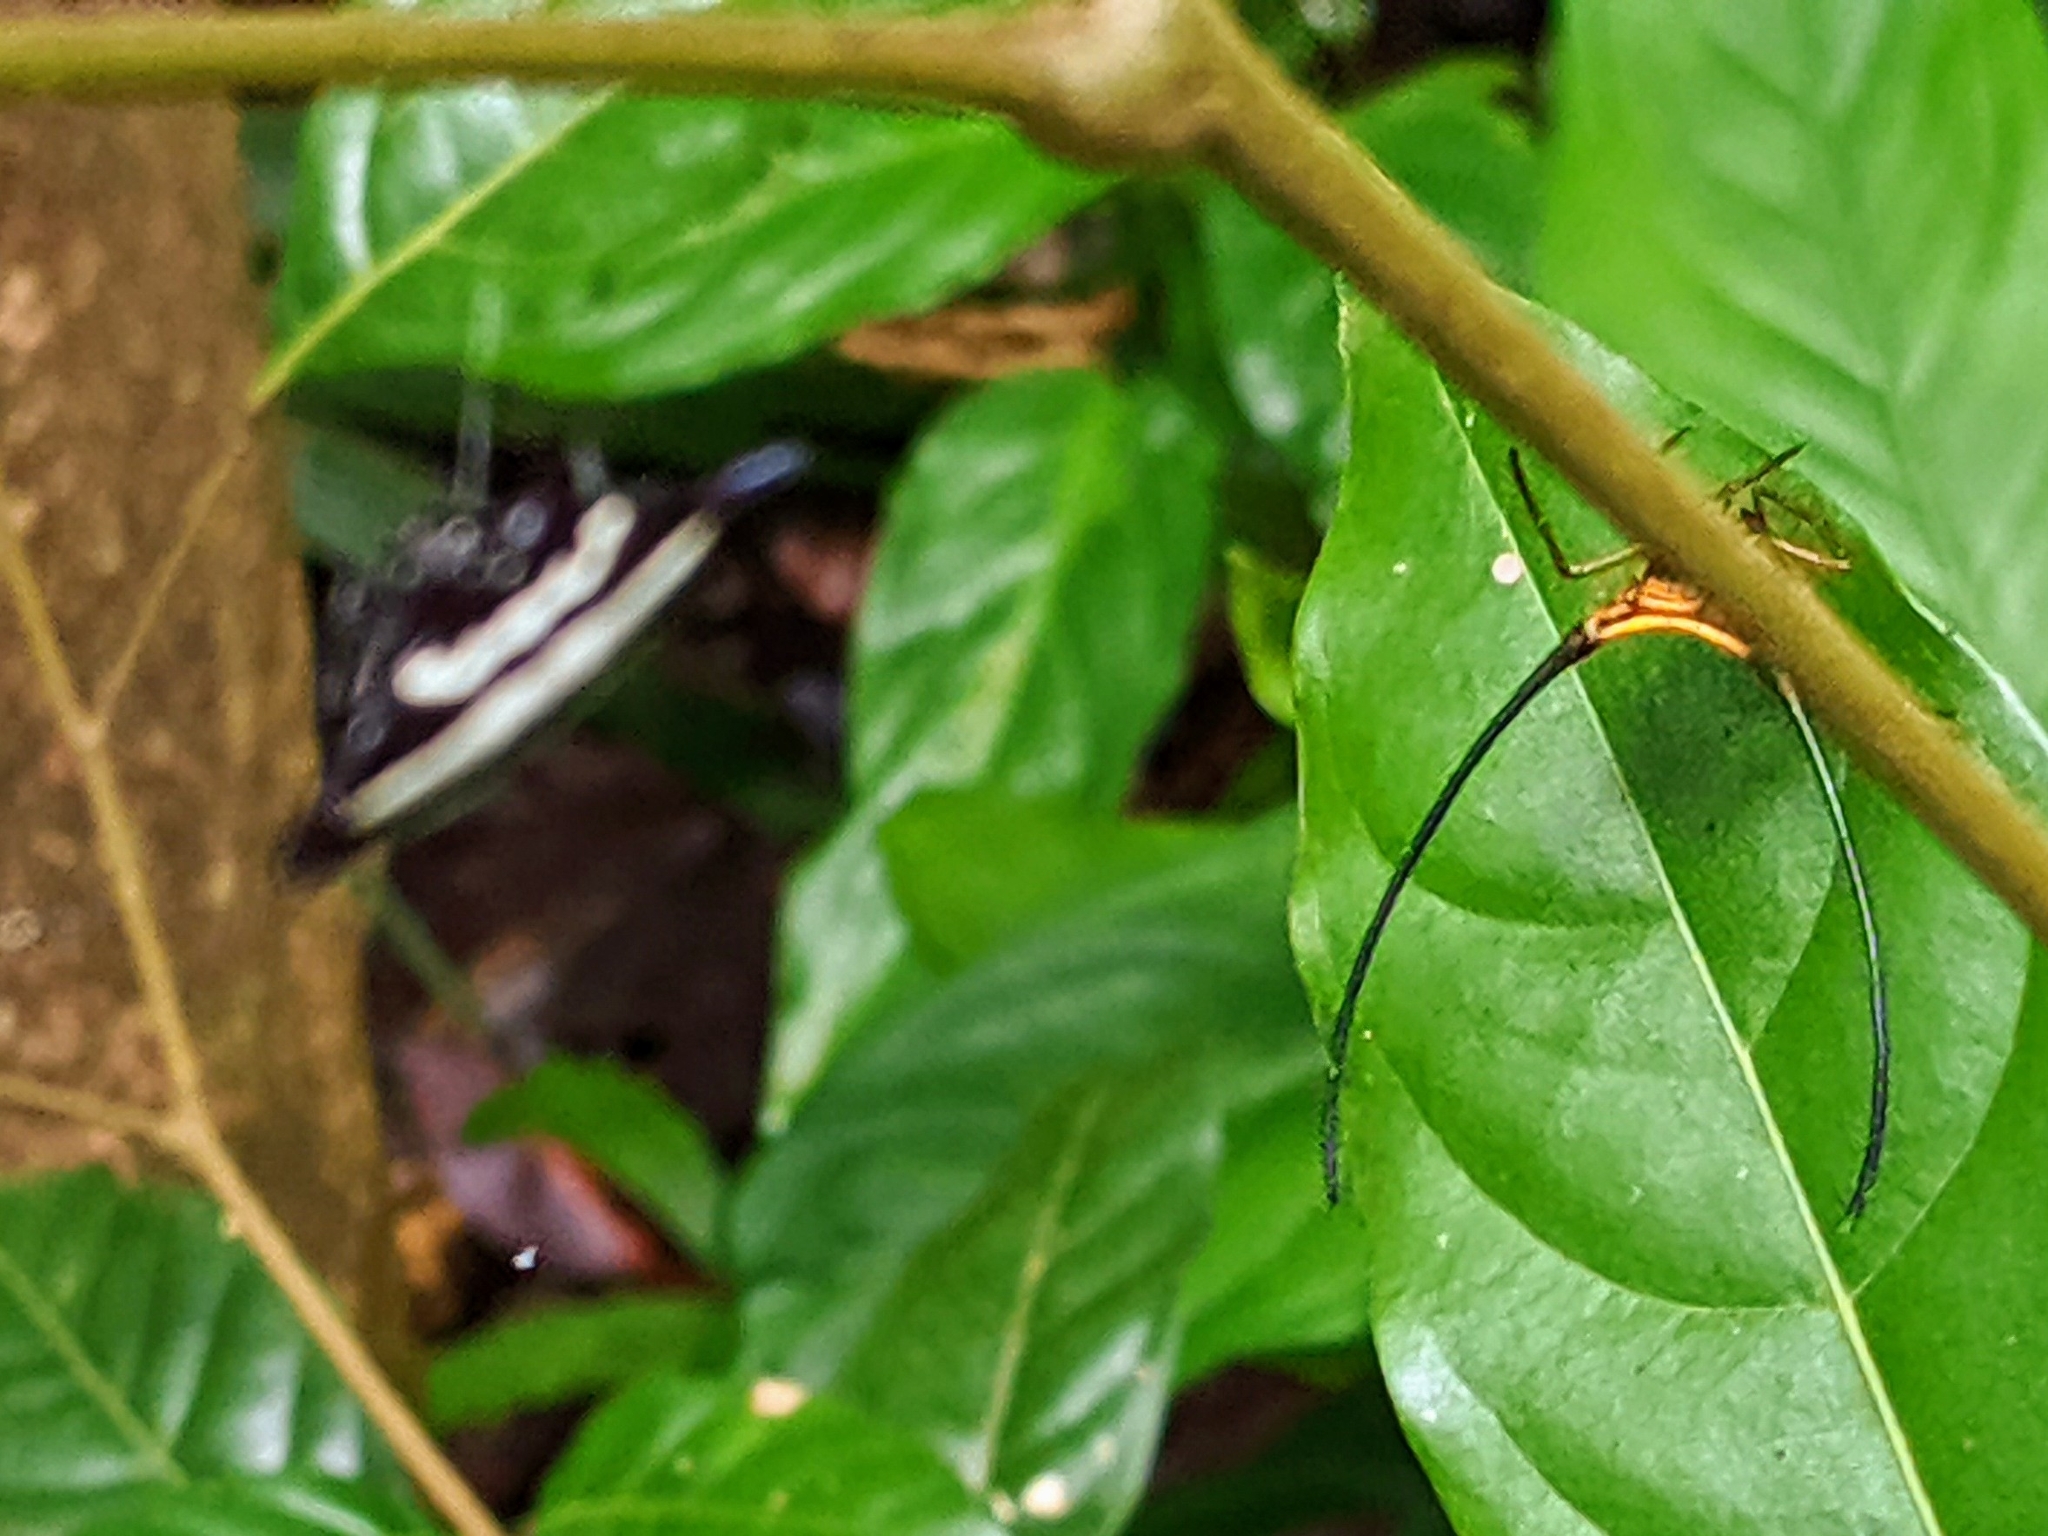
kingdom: Animalia
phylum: Arthropoda
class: Arachnida
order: Araneae
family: Araneidae
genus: Macracantha
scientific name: Macracantha arcuata
